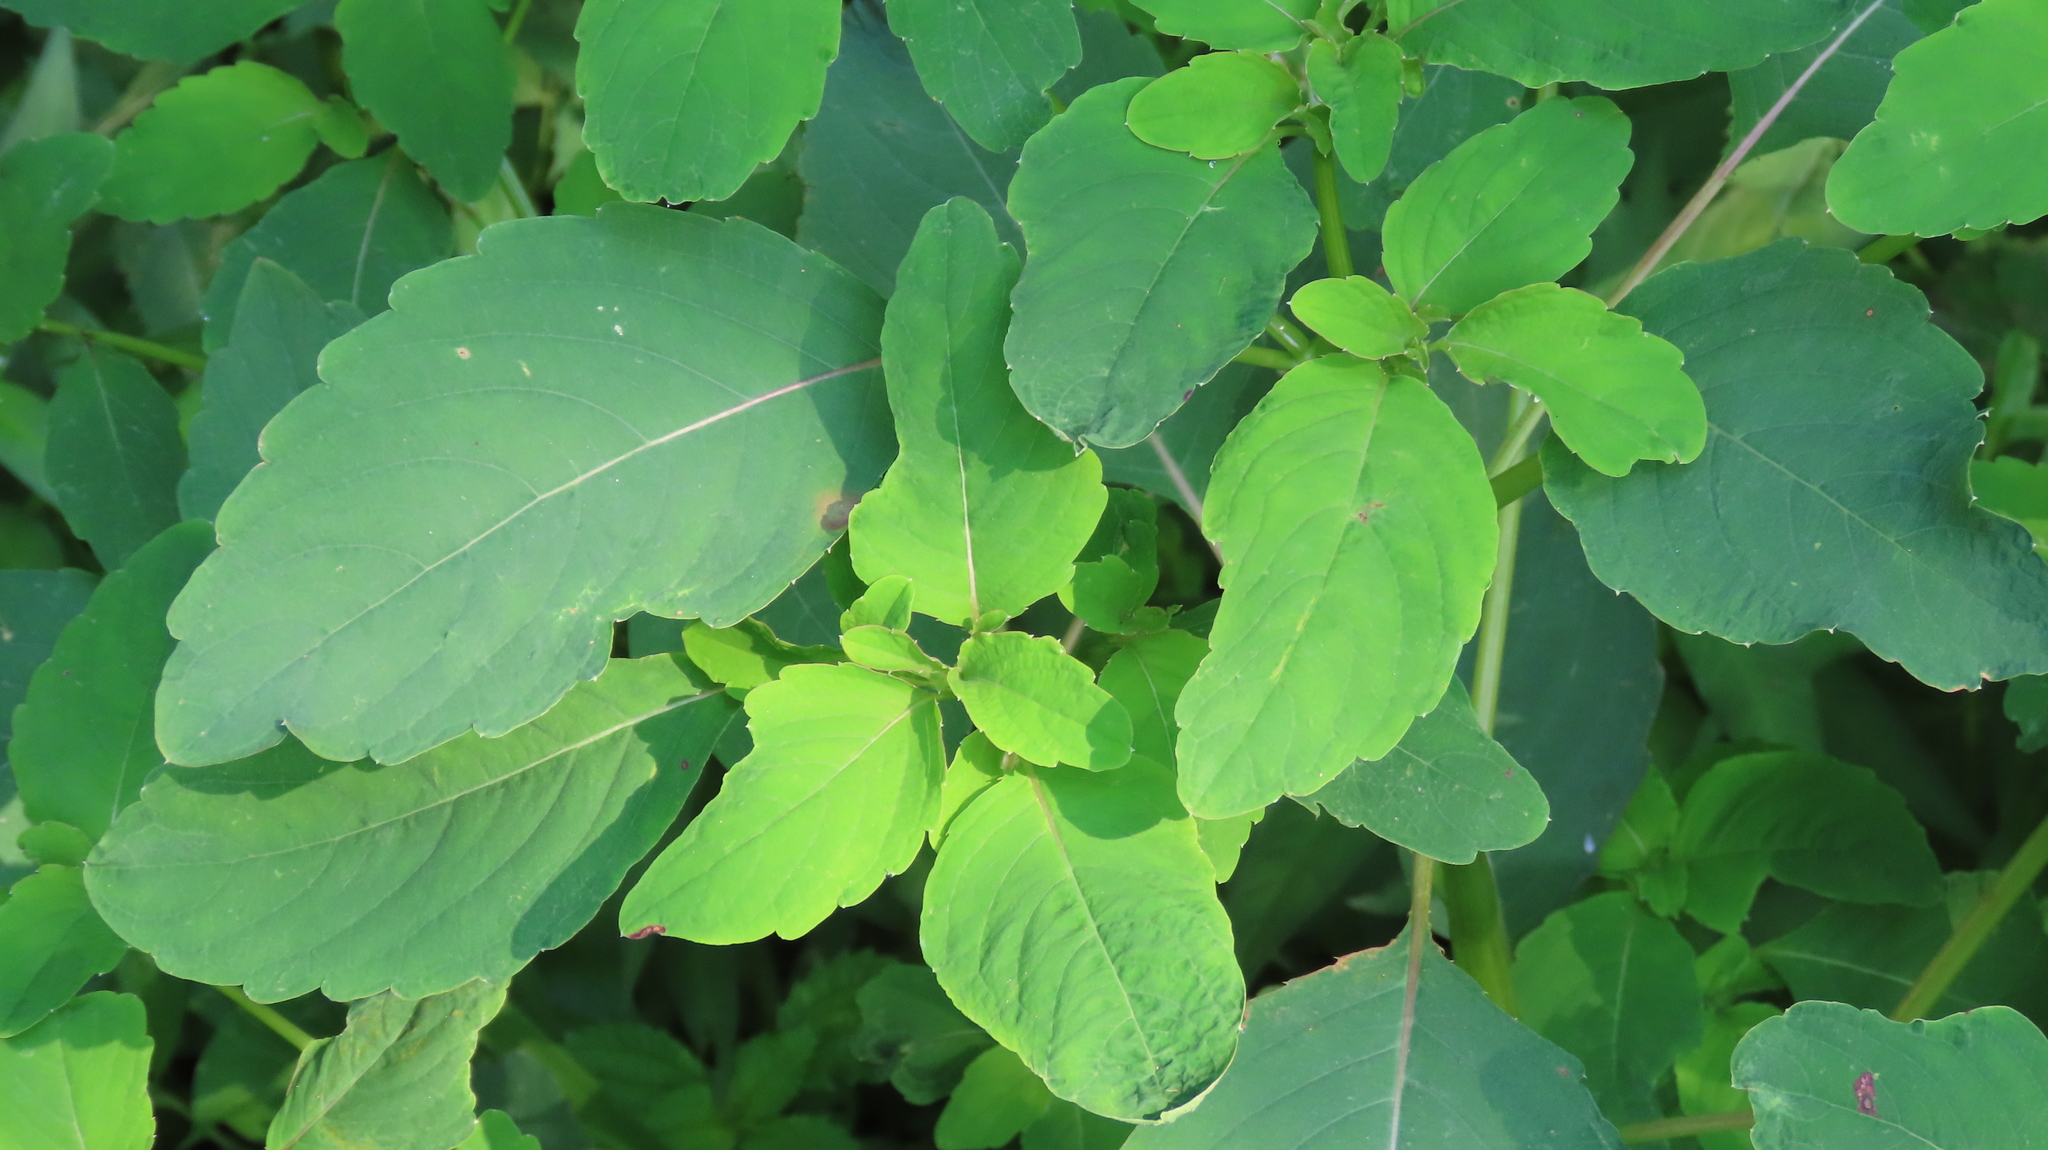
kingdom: Plantae
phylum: Tracheophyta
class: Magnoliopsida
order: Ericales
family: Balsaminaceae
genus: Impatiens
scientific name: Impatiens capensis
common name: Orange balsam
